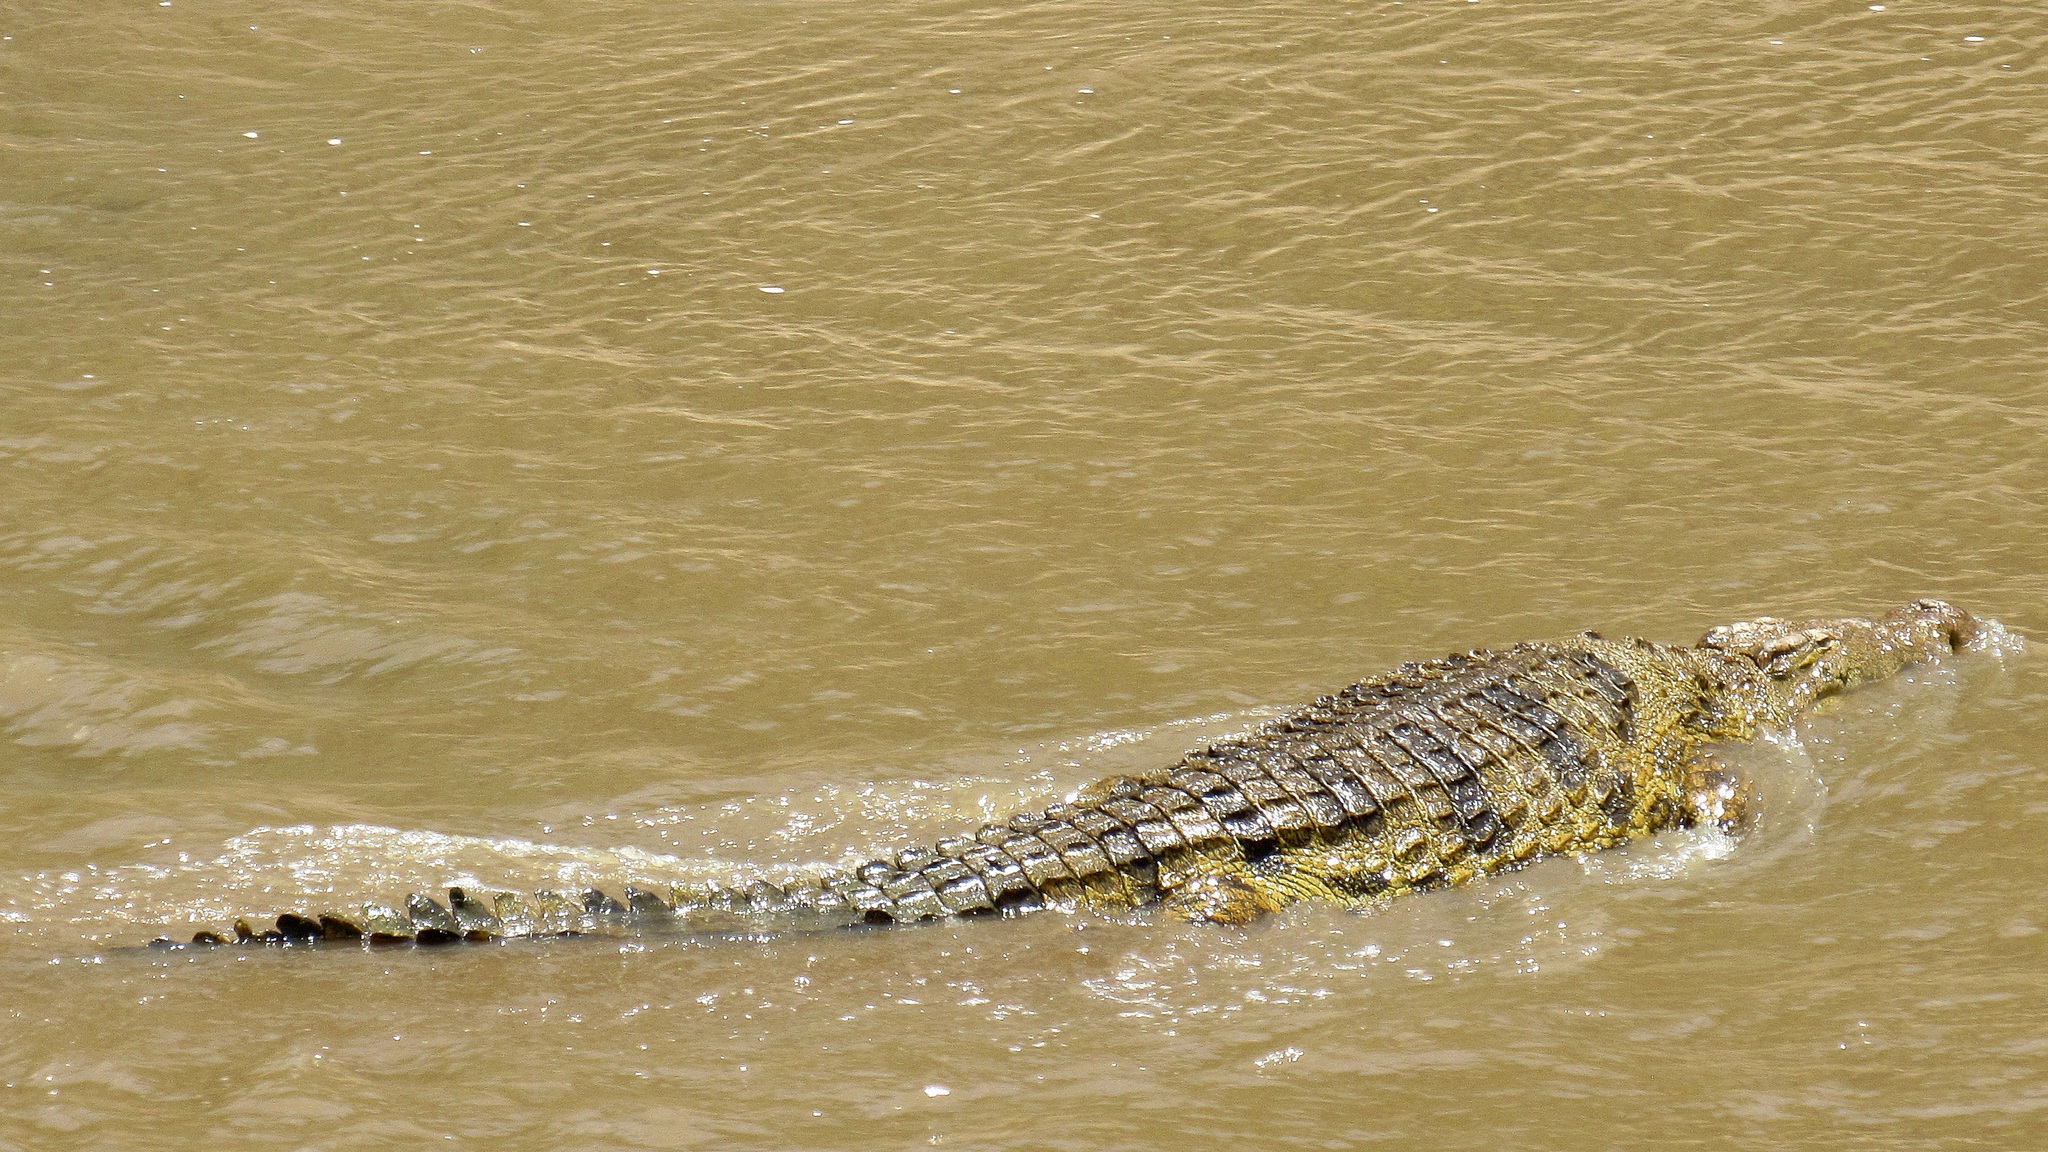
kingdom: Animalia
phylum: Chordata
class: Crocodylia
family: Crocodylidae
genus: Crocodylus
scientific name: Crocodylus niloticus
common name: Nile crocodile
